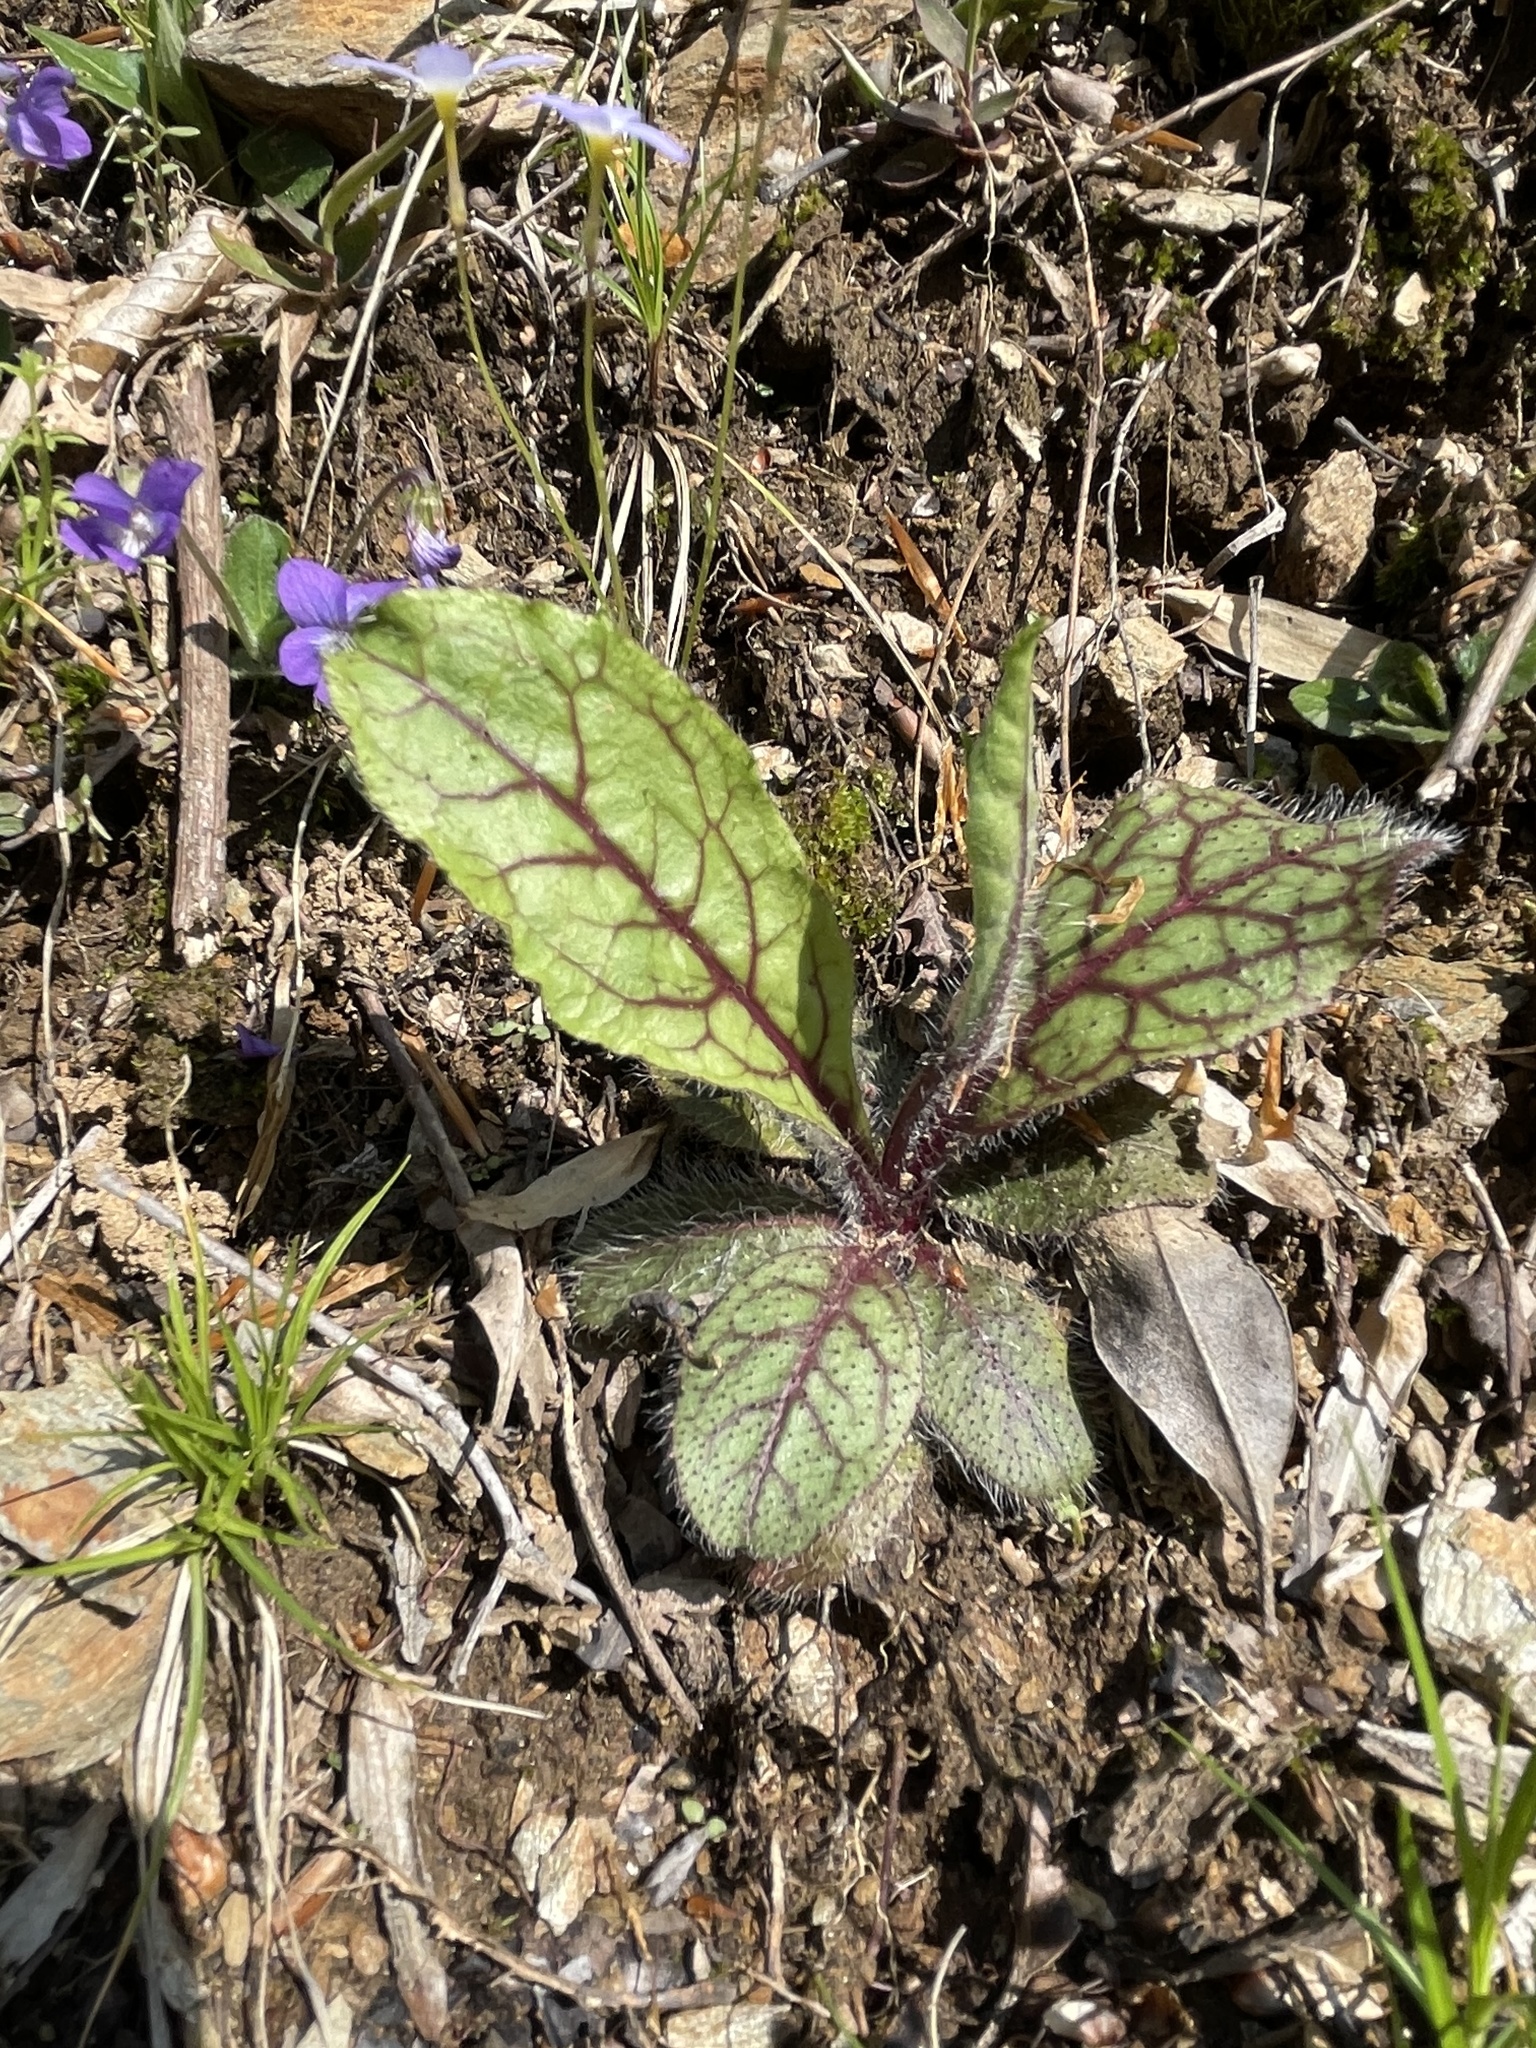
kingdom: Plantae
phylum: Tracheophyta
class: Magnoliopsida
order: Asterales
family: Asteraceae
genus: Hieracium
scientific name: Hieracium venosum
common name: Rattlesnake hawkweed
